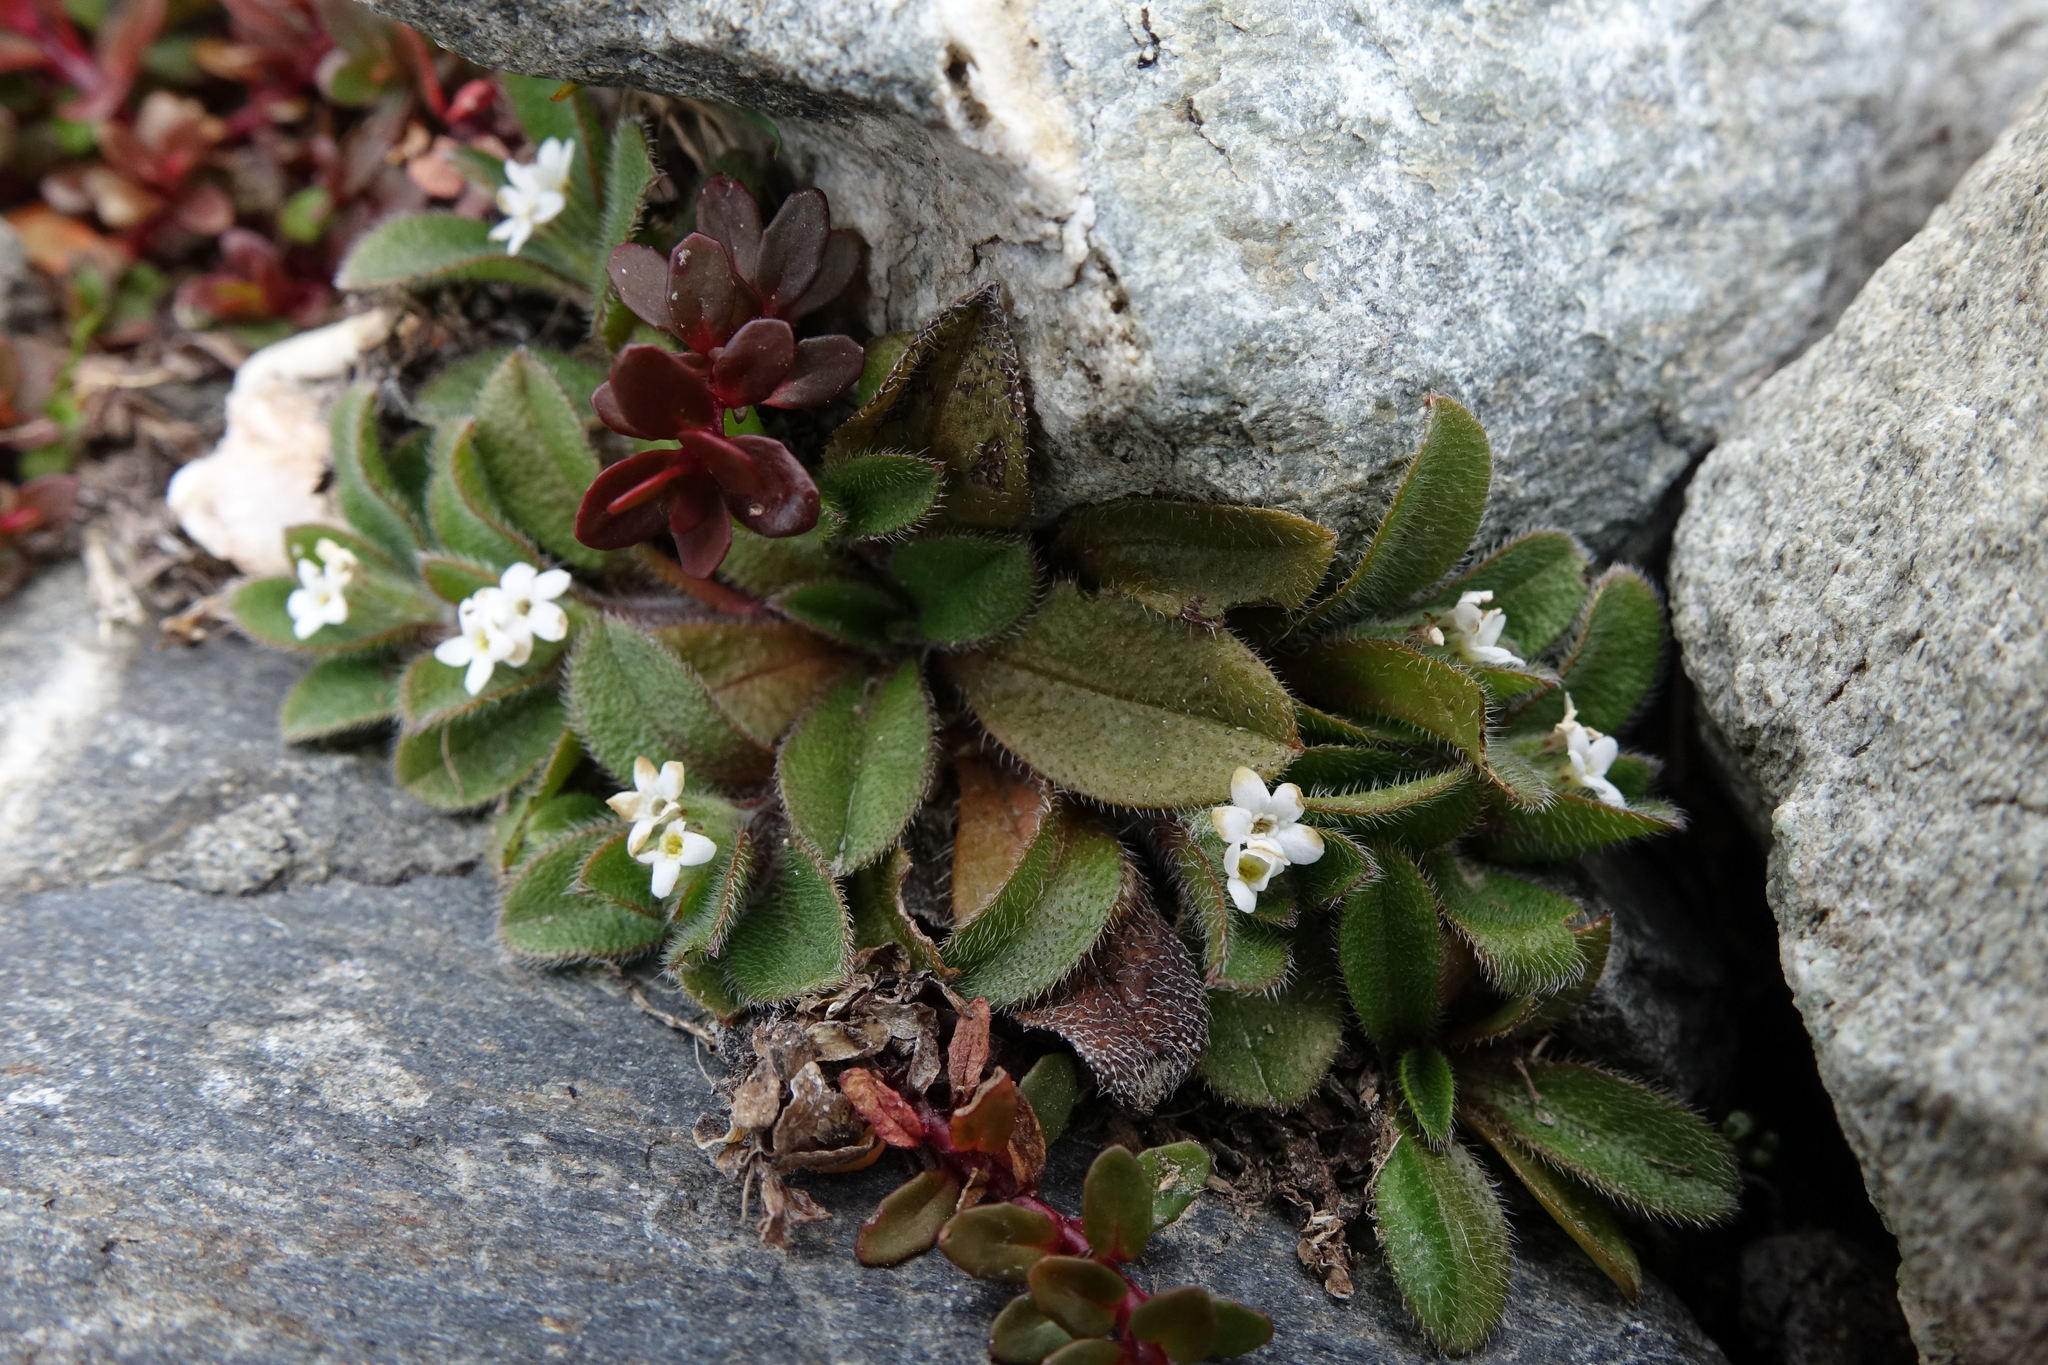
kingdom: Plantae
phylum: Tracheophyta
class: Magnoliopsida
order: Boraginales
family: Boraginaceae
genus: Myosotis
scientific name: Myosotis antarctica
